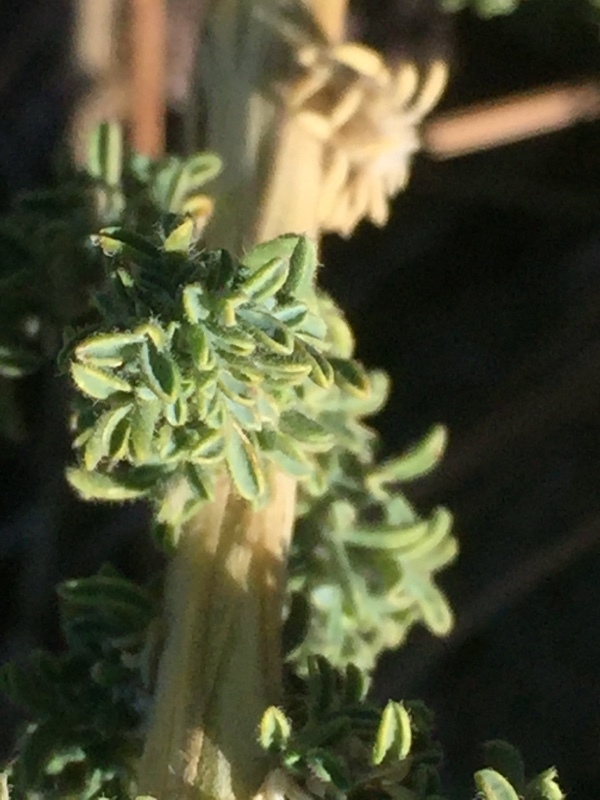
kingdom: Plantae
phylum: Tracheophyta
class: Magnoliopsida
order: Fabales
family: Fabaceae
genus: Adenocarpus
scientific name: Adenocarpus viscosus
